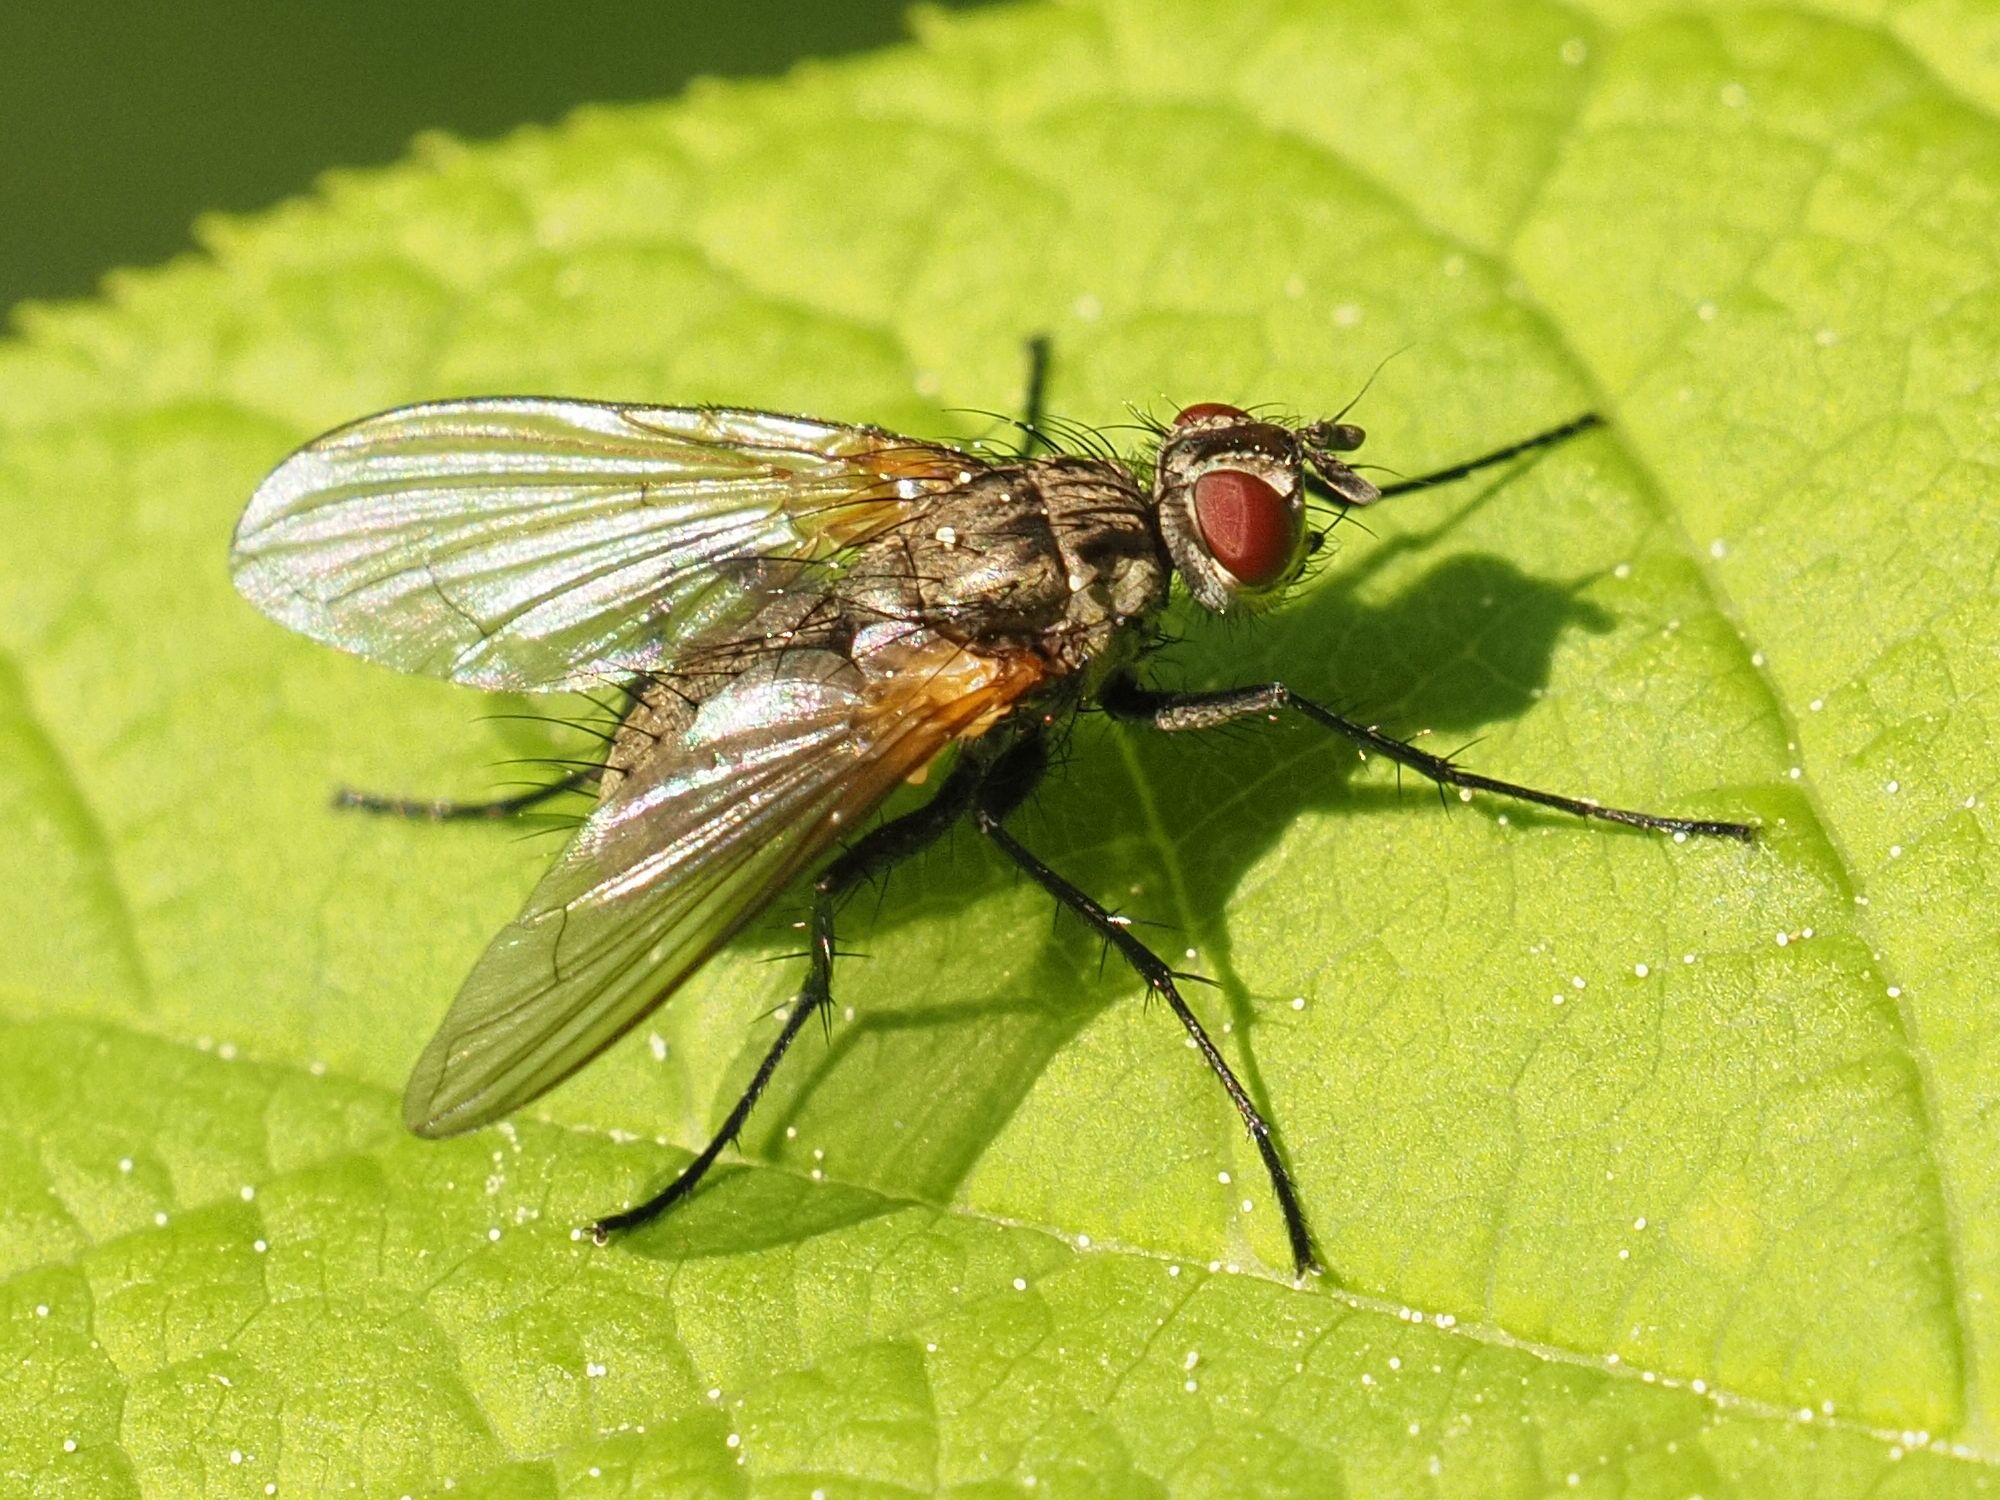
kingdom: Animalia
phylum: Arthropoda
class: Insecta
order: Diptera
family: Tachinidae
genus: Macquartia
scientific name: Macquartia grisea
